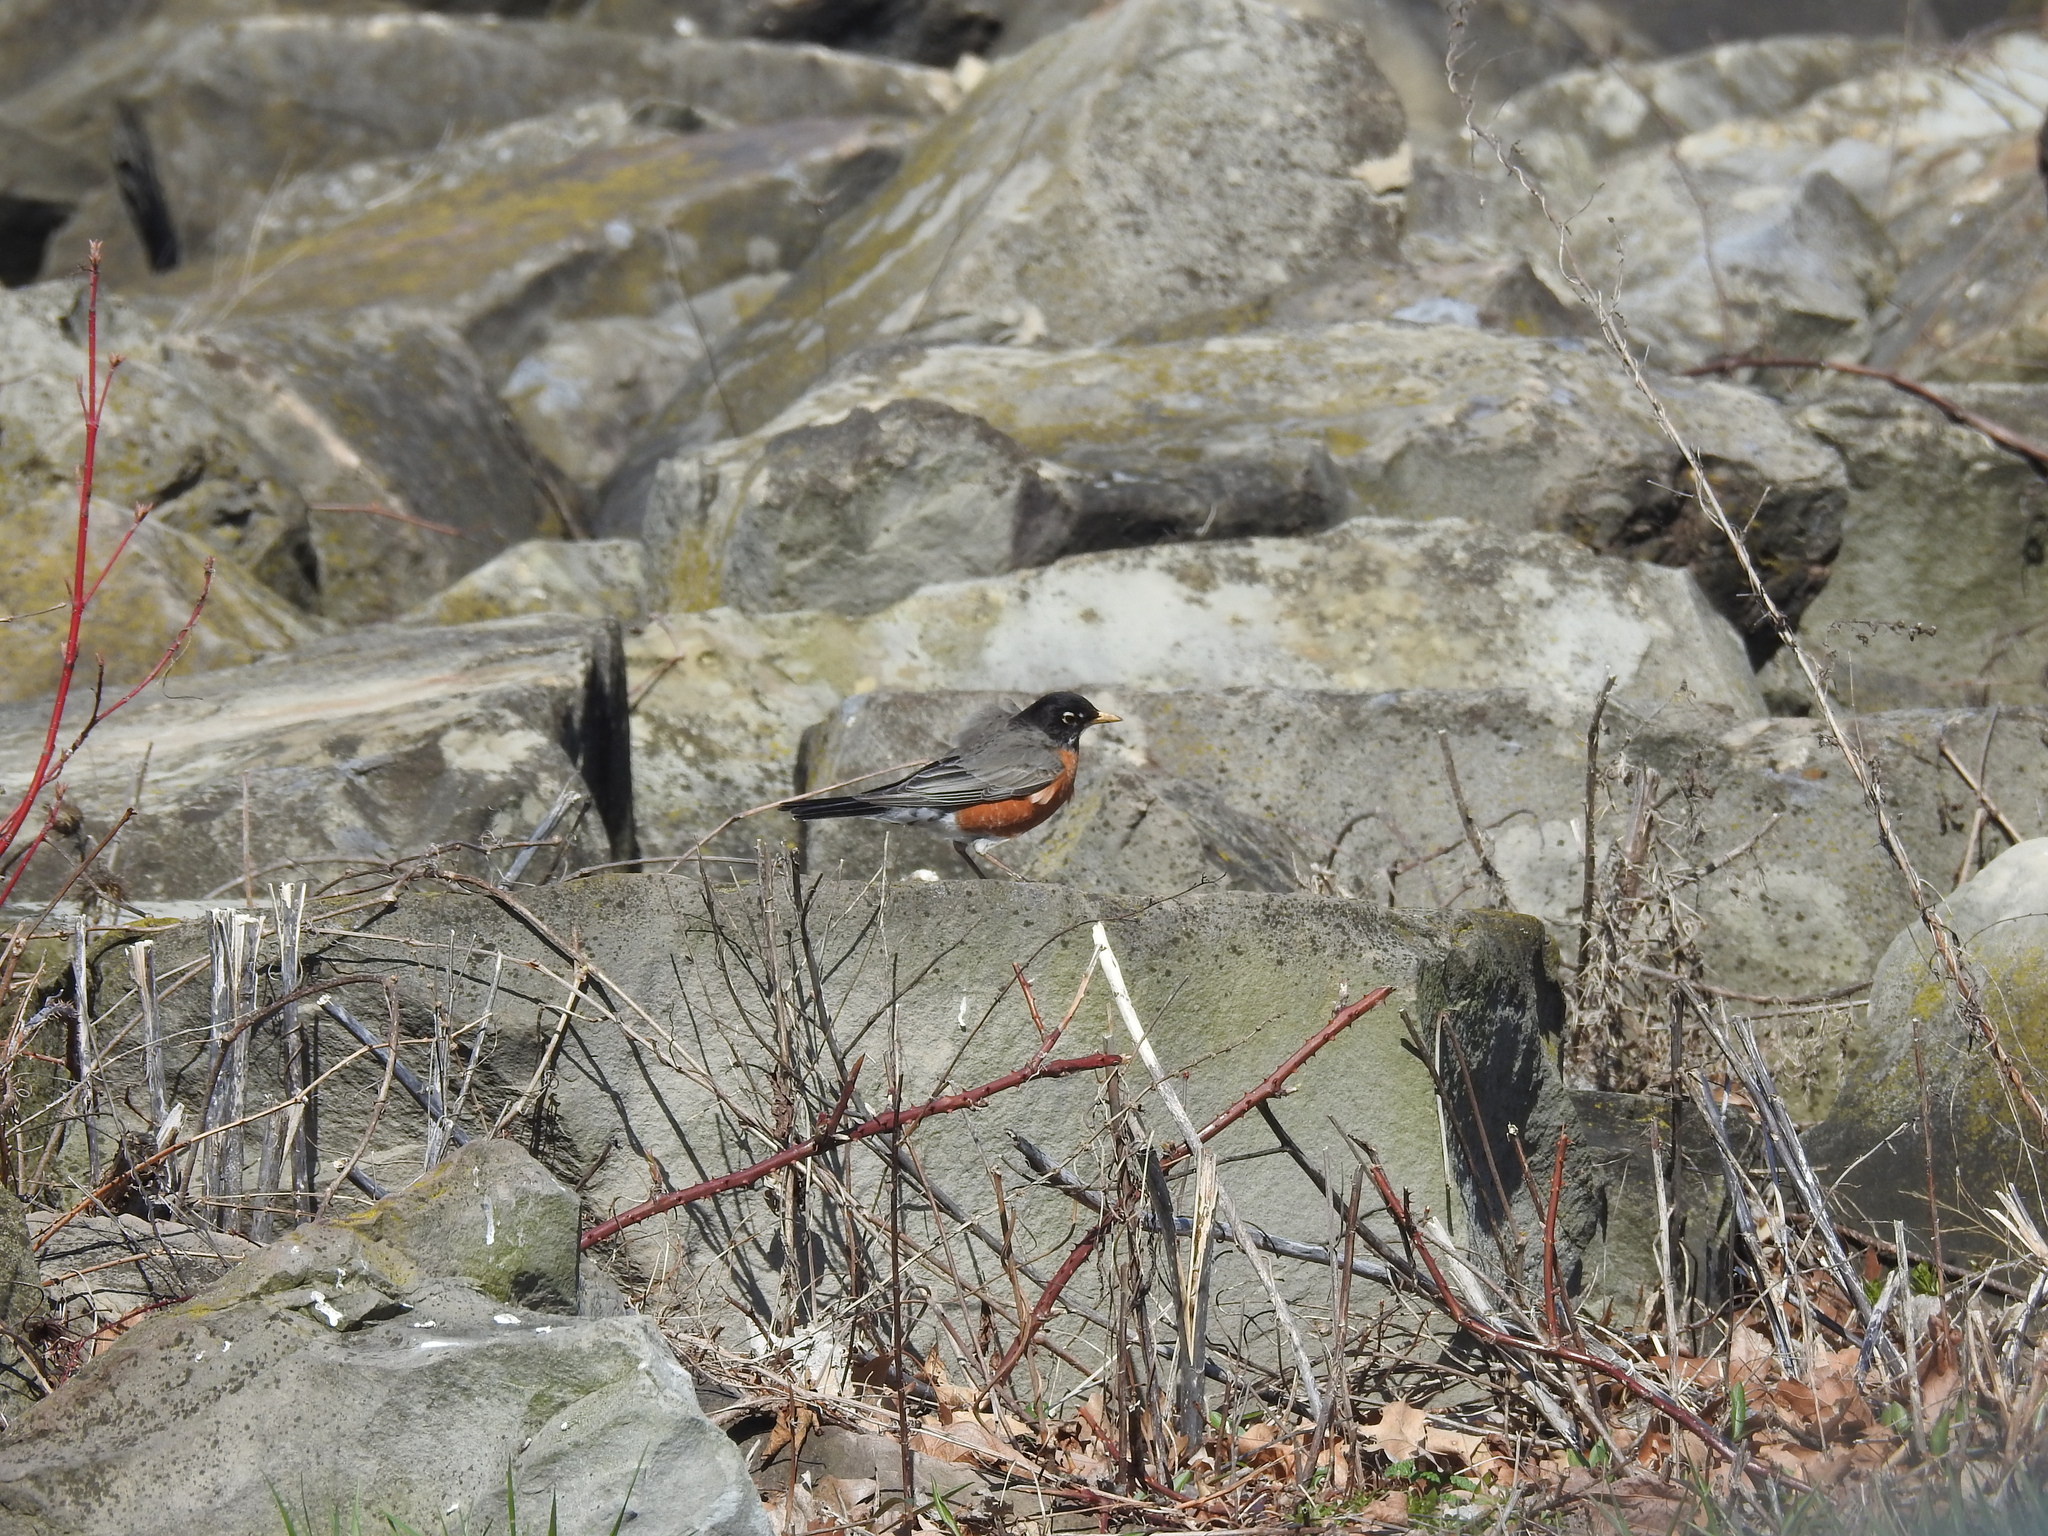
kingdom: Animalia
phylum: Chordata
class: Aves
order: Passeriformes
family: Turdidae
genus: Turdus
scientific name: Turdus migratorius
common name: American robin
